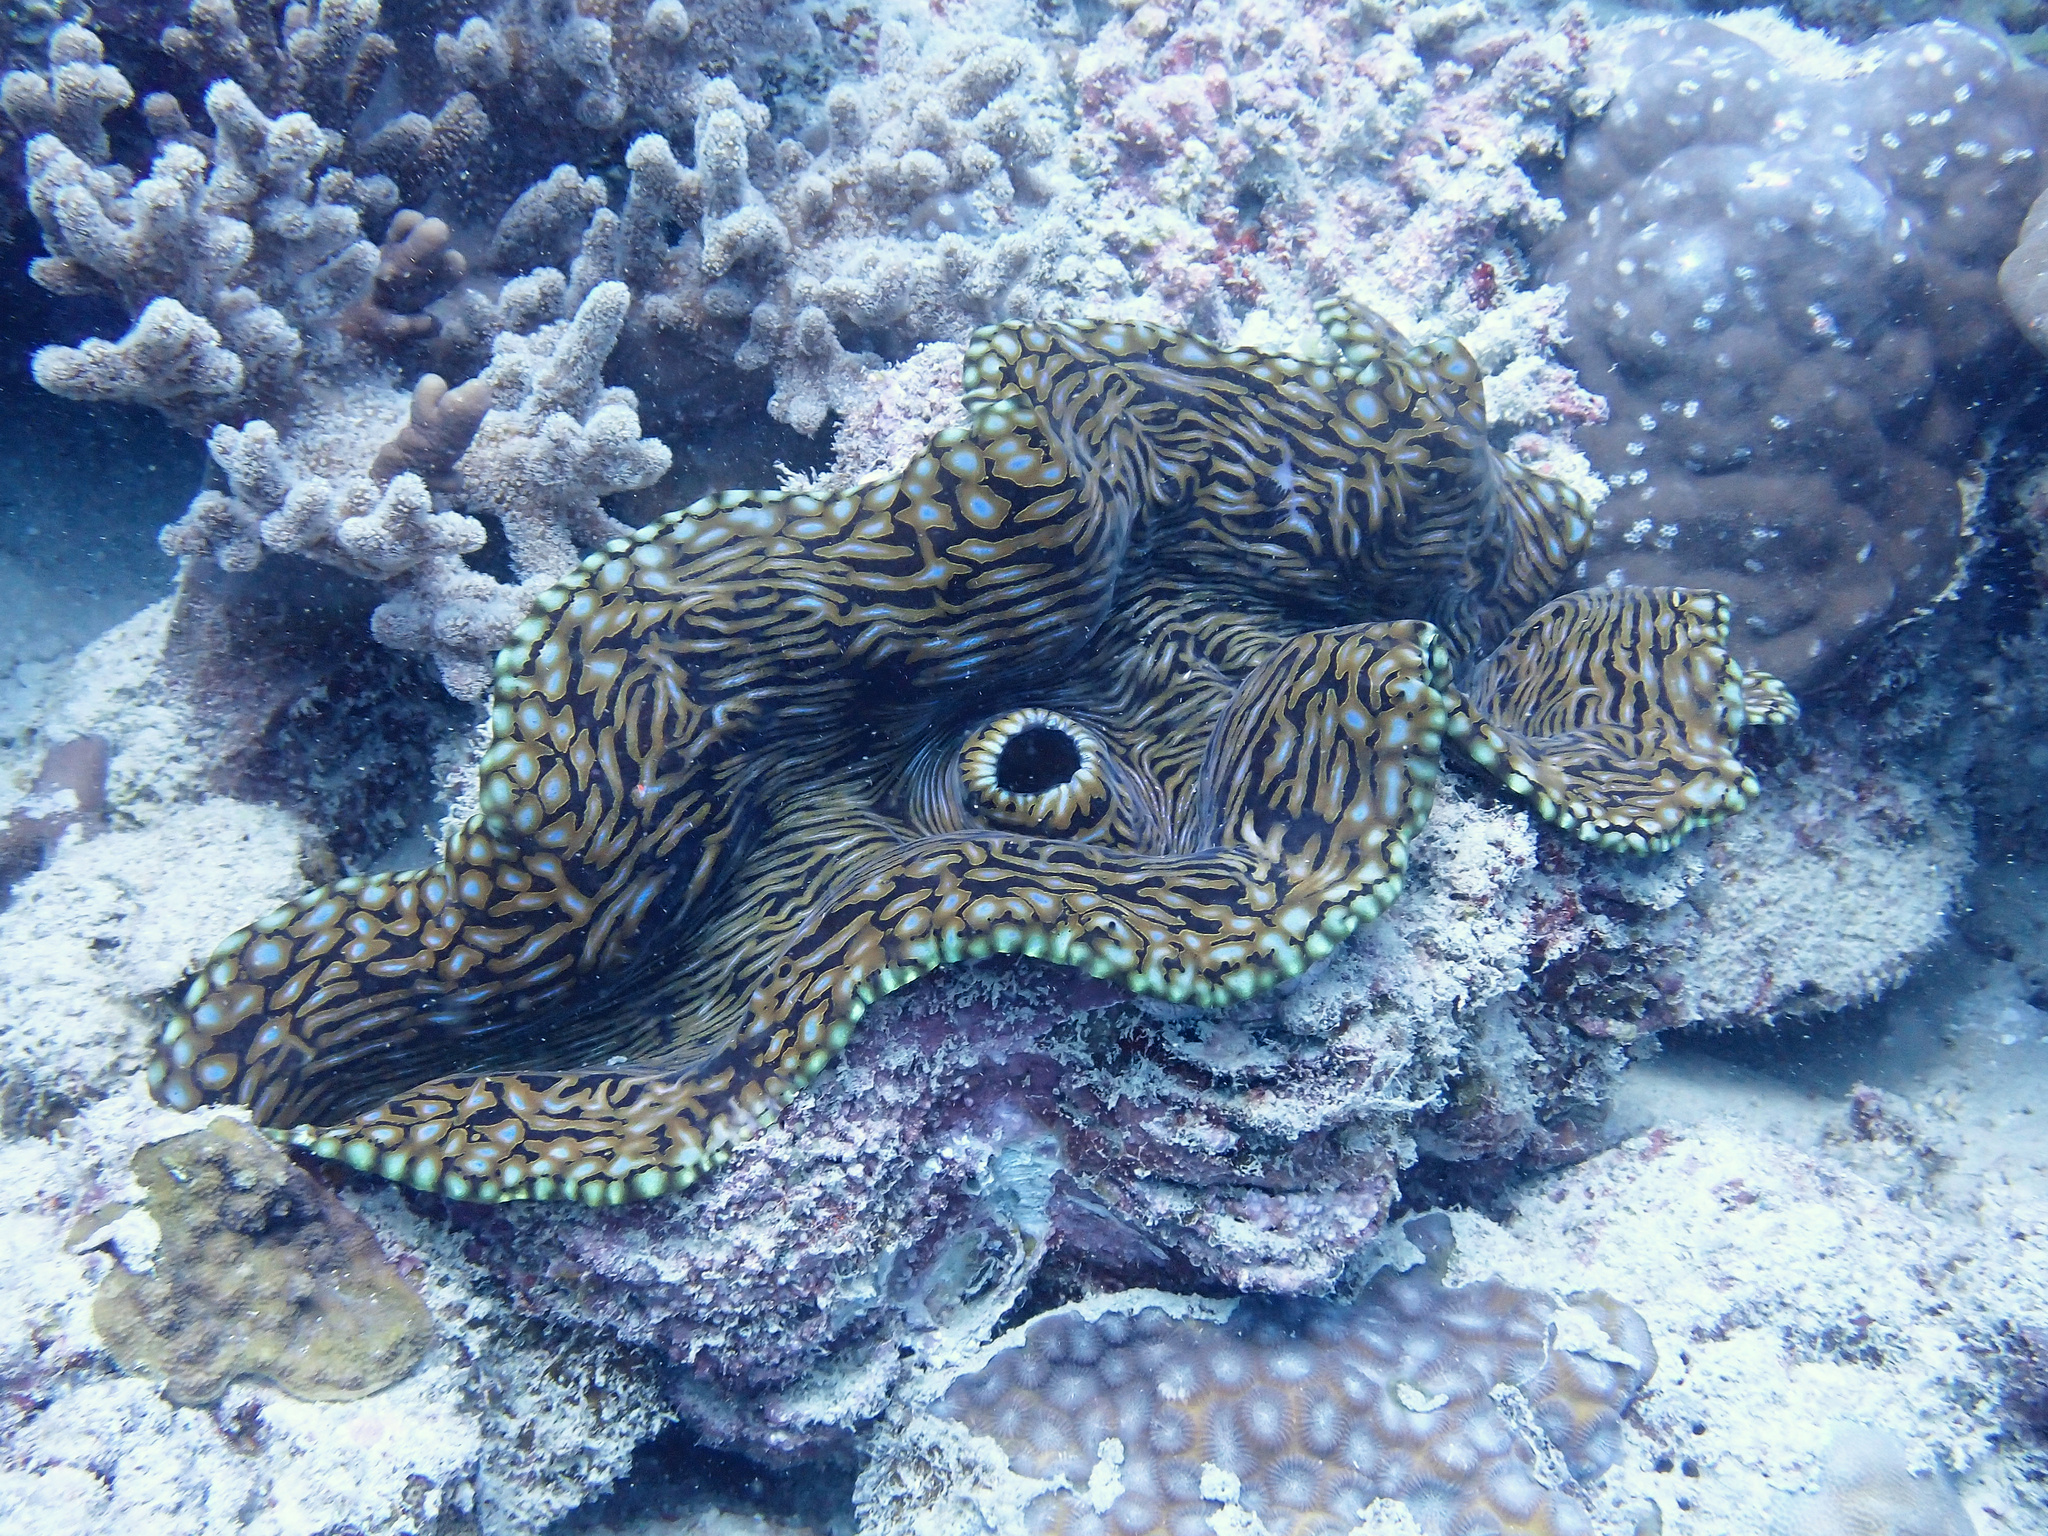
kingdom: Animalia
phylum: Mollusca
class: Bivalvia
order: Cardiida
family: Cardiidae
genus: Tridacna
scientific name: Tridacna squamosa
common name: Fluted clam
